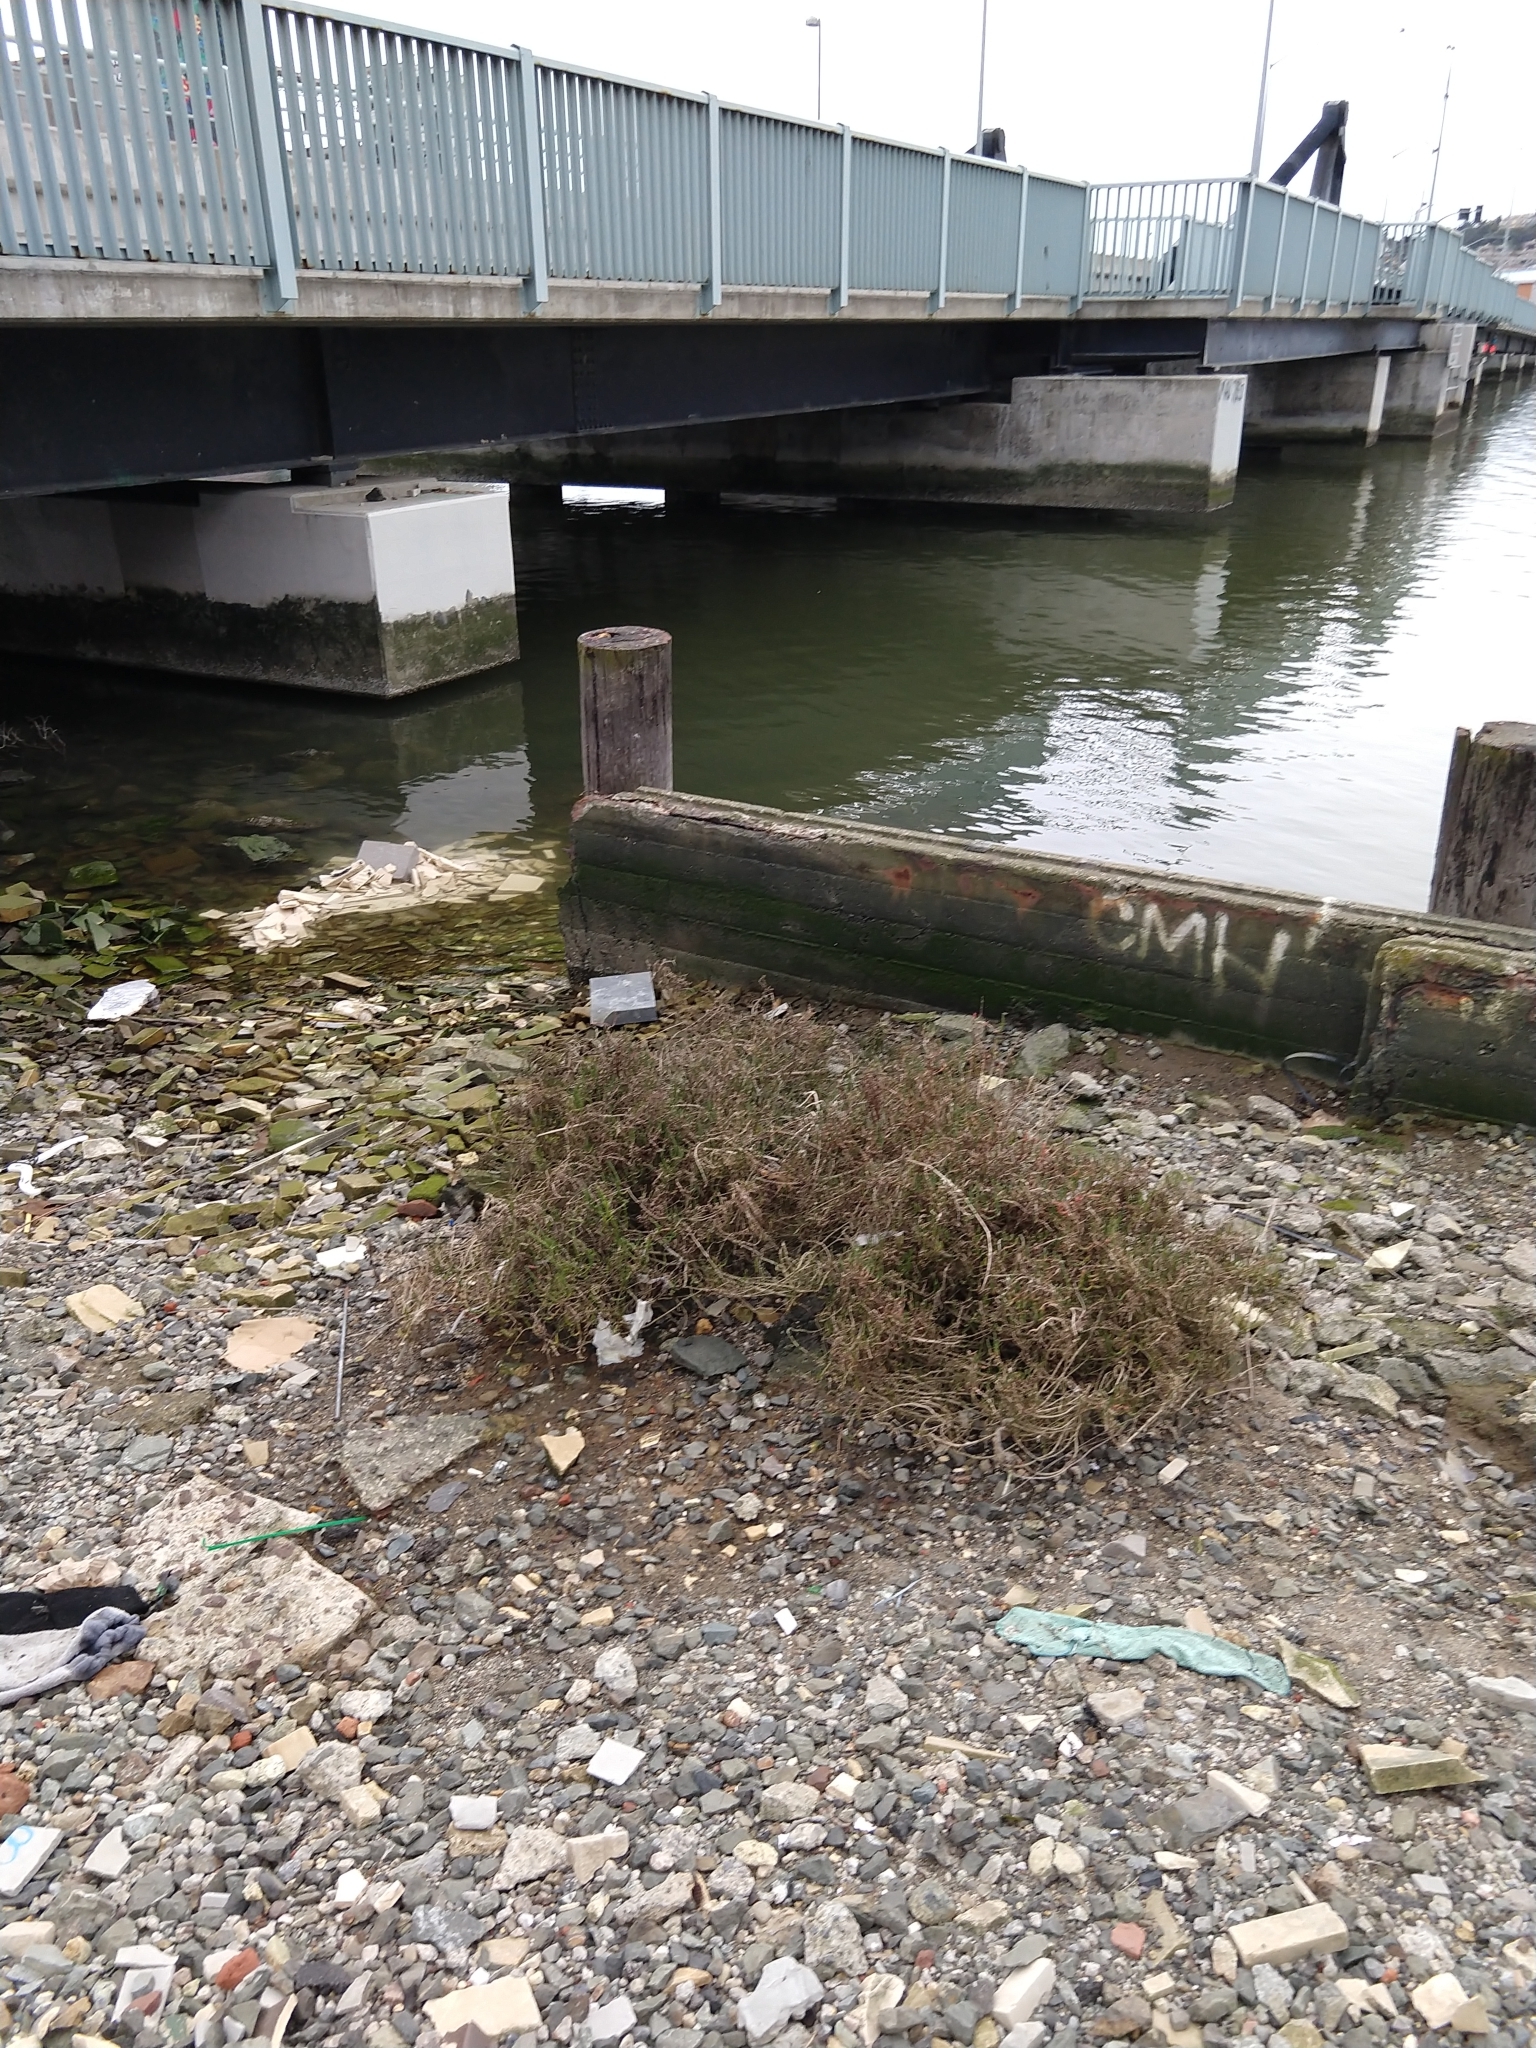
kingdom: Plantae
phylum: Tracheophyta
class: Magnoliopsida
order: Caryophyllales
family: Amaranthaceae
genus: Salicornia
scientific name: Salicornia pacifica
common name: Pacific glasswort
